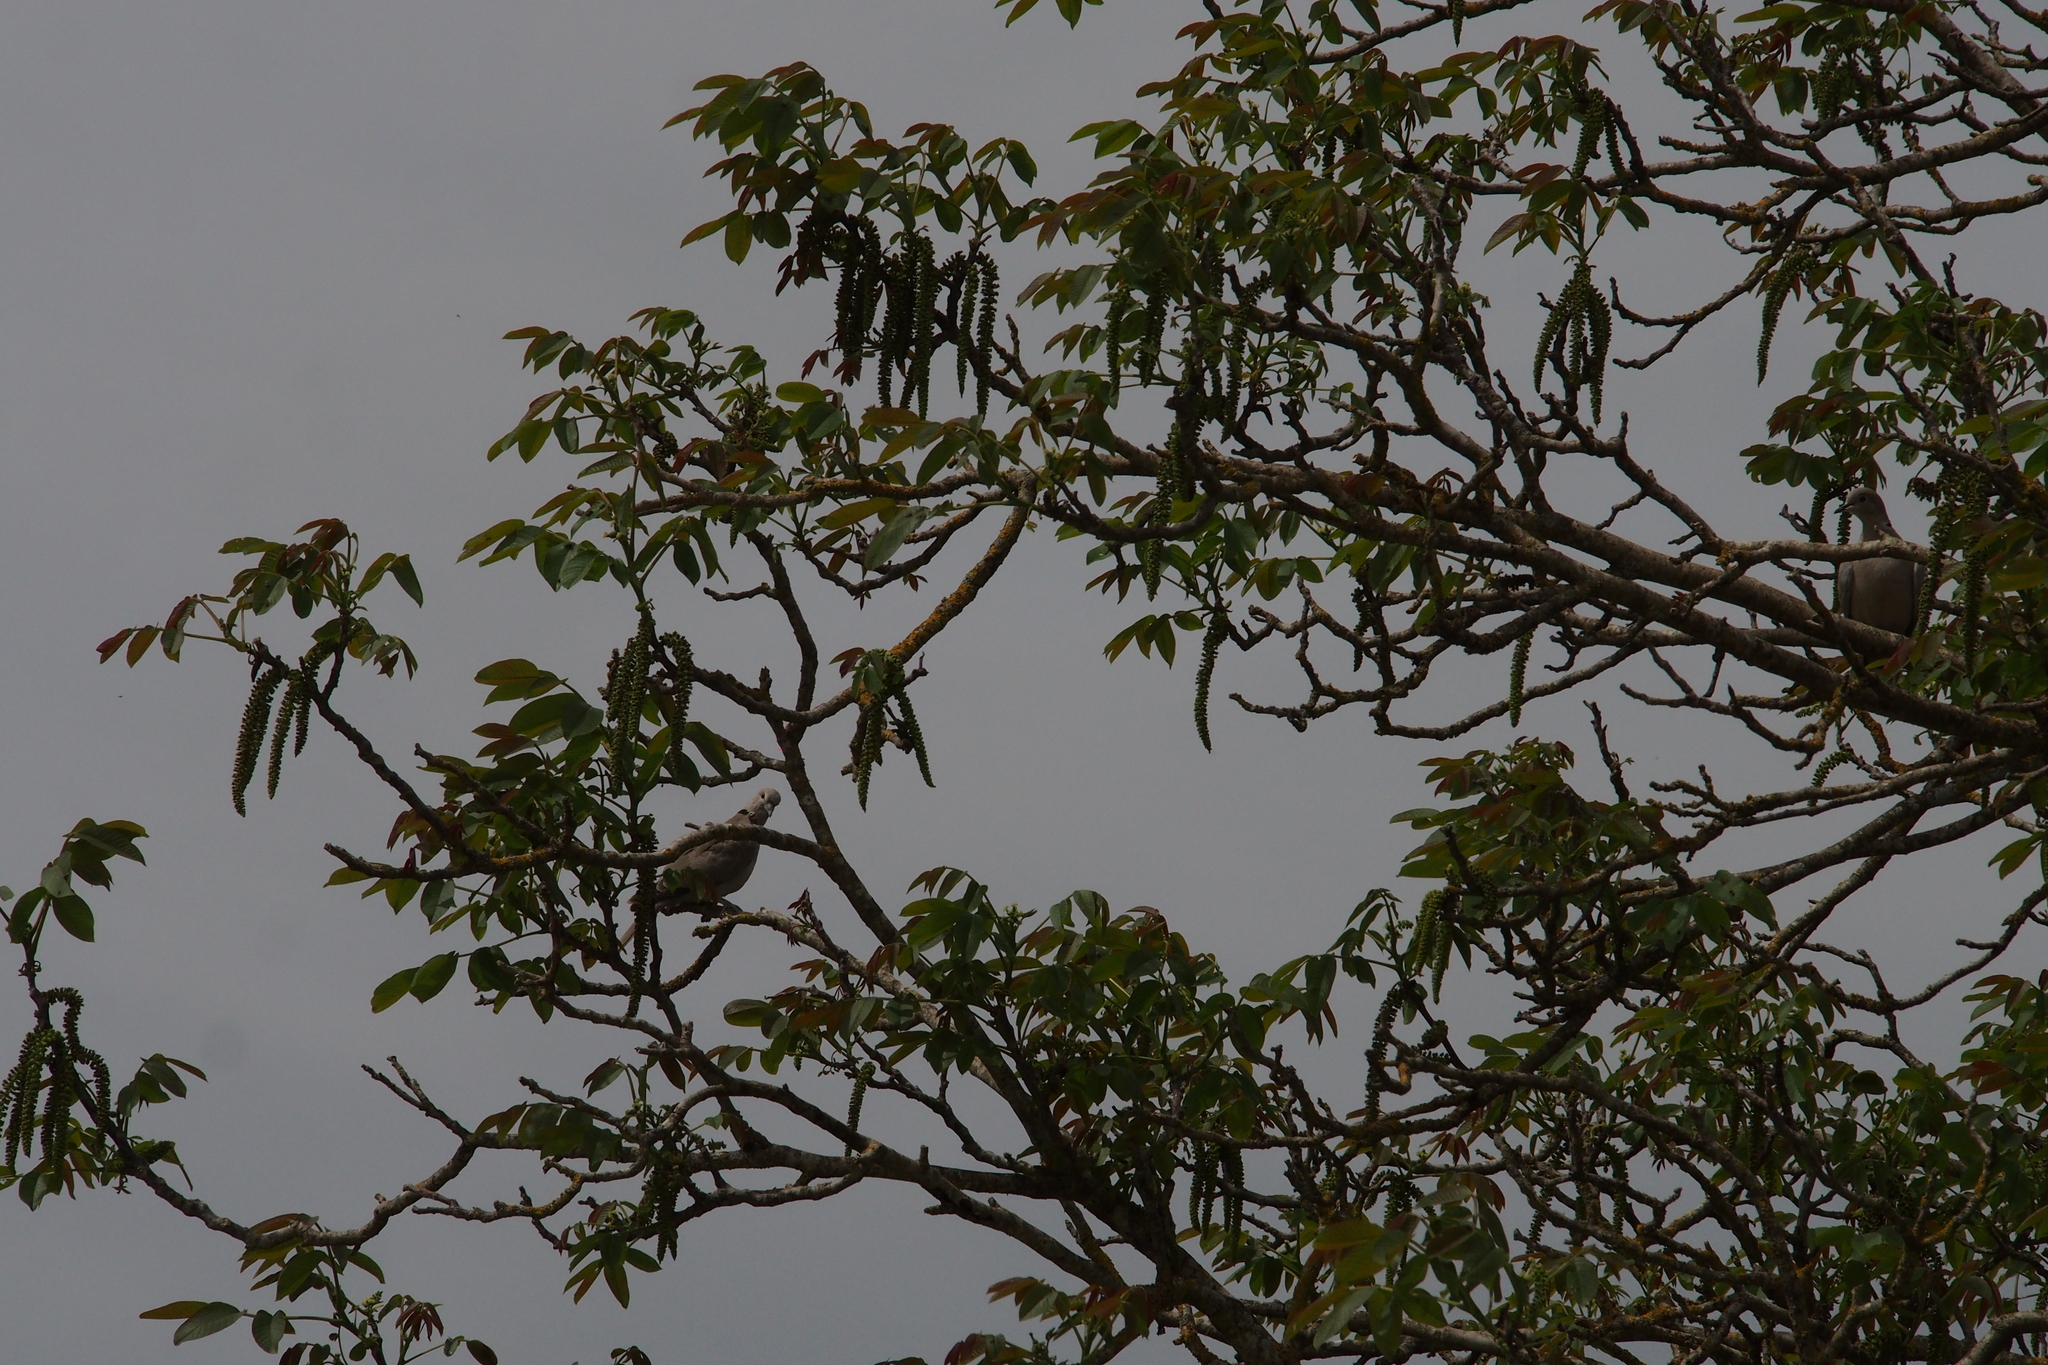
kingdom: Animalia
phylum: Chordata
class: Aves
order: Columbiformes
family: Columbidae
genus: Streptopelia
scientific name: Streptopelia decaocto
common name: Eurasian collared dove
